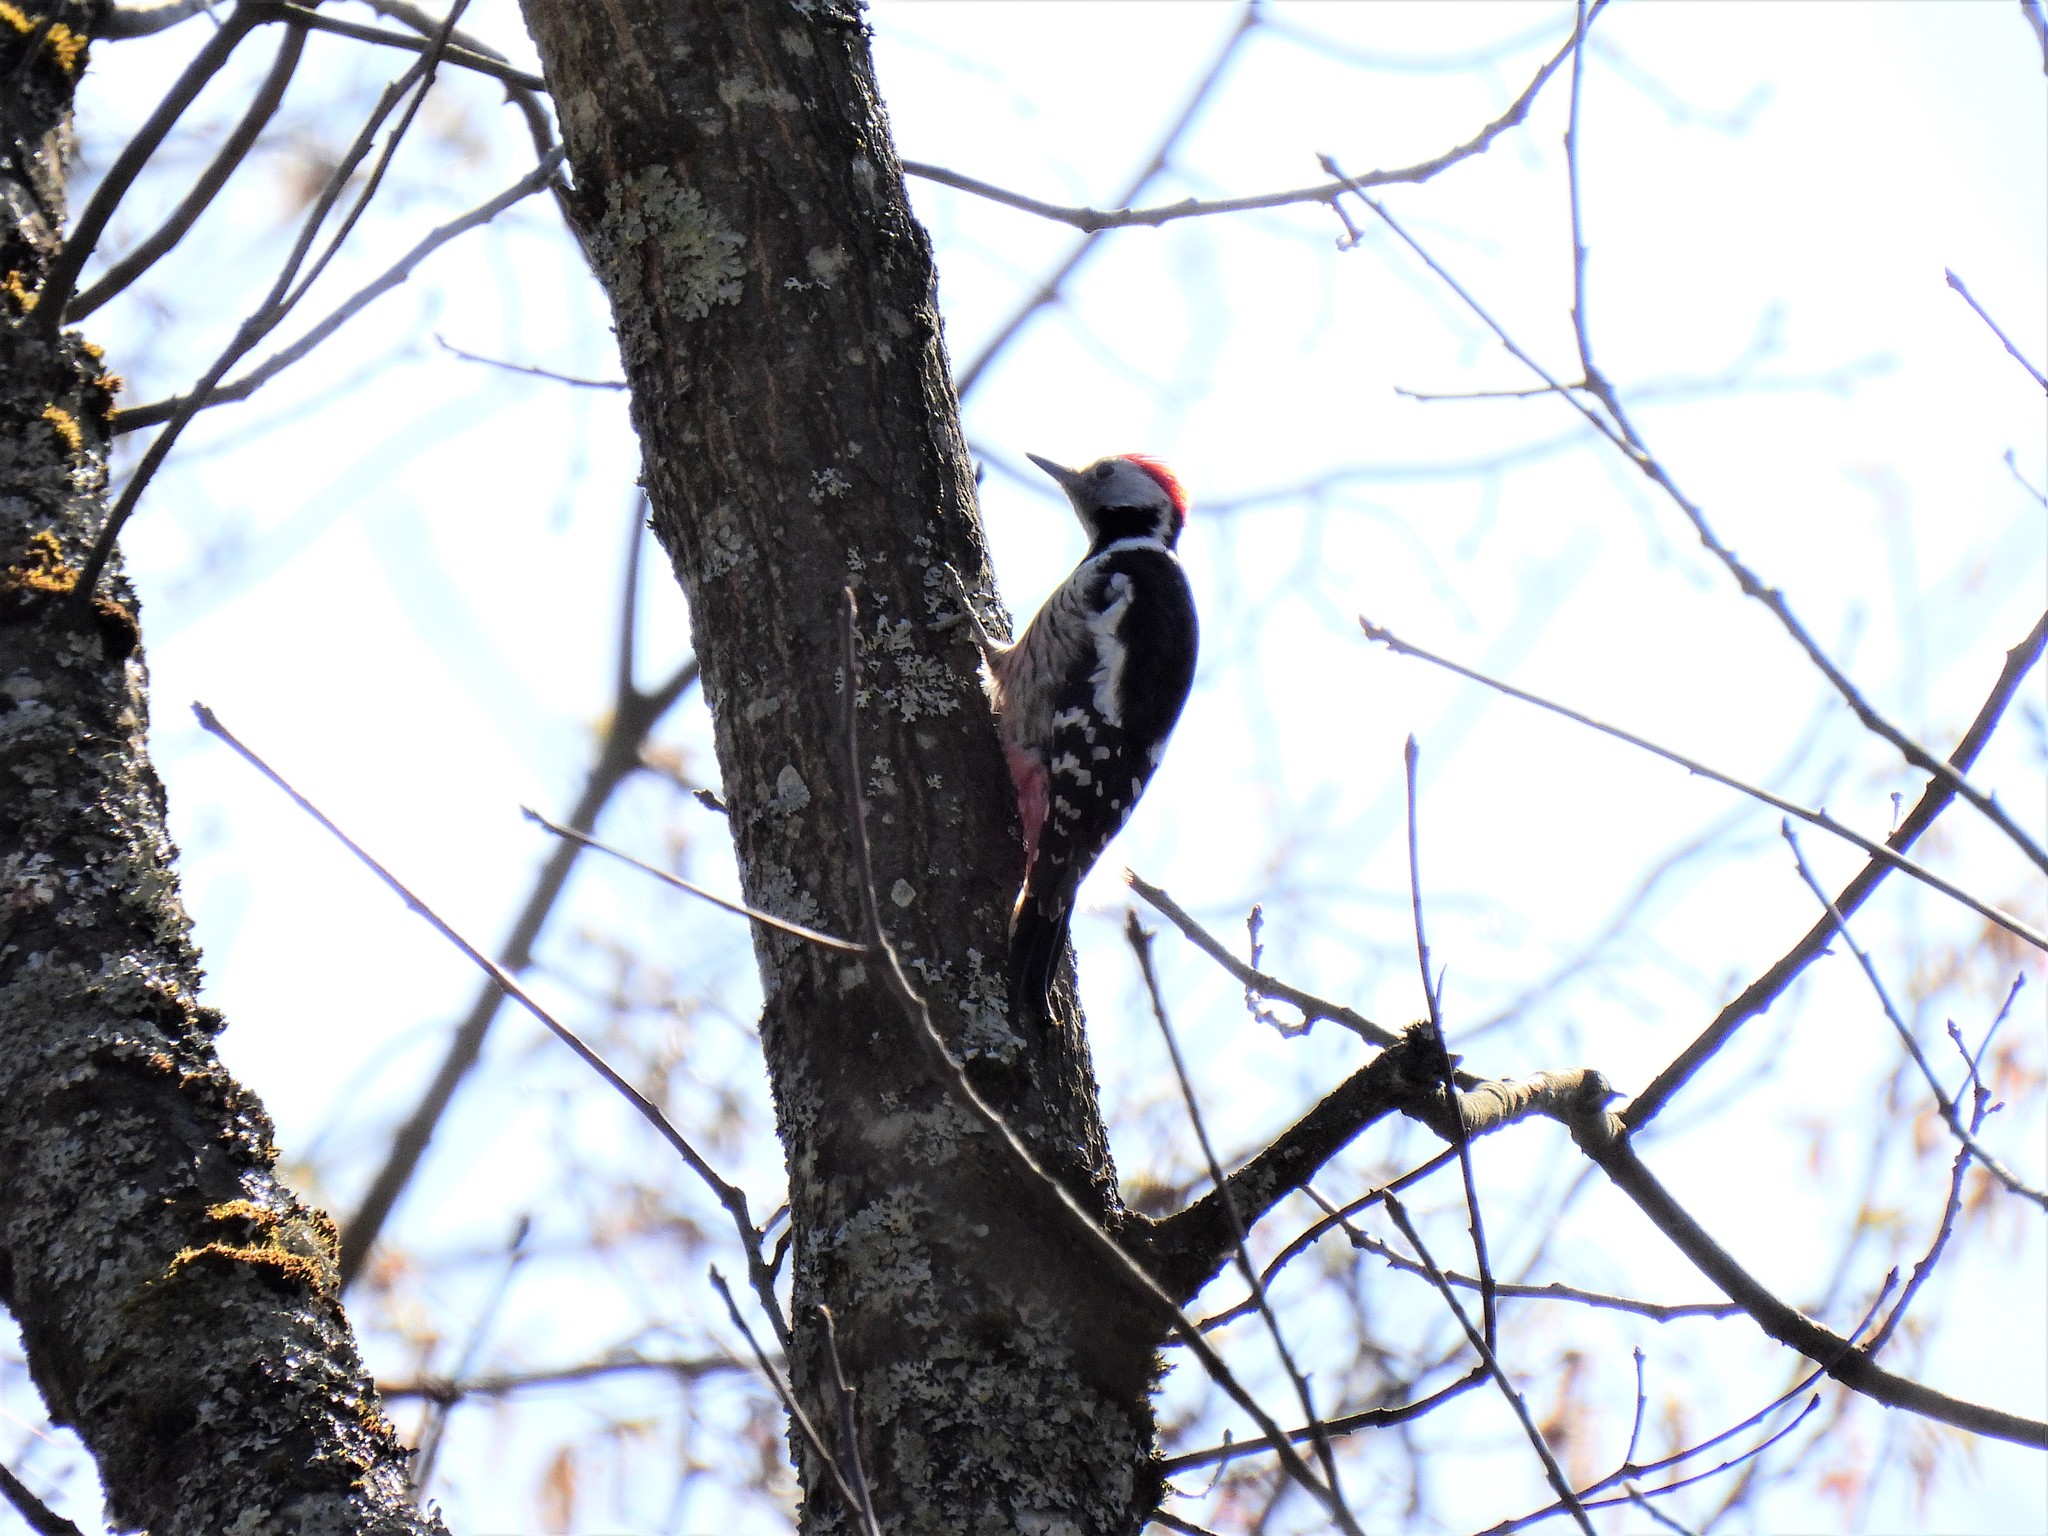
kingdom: Animalia
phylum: Chordata
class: Aves
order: Piciformes
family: Picidae
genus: Dendrocoptes
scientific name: Dendrocoptes medius
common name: Middle spotted woodpecker
